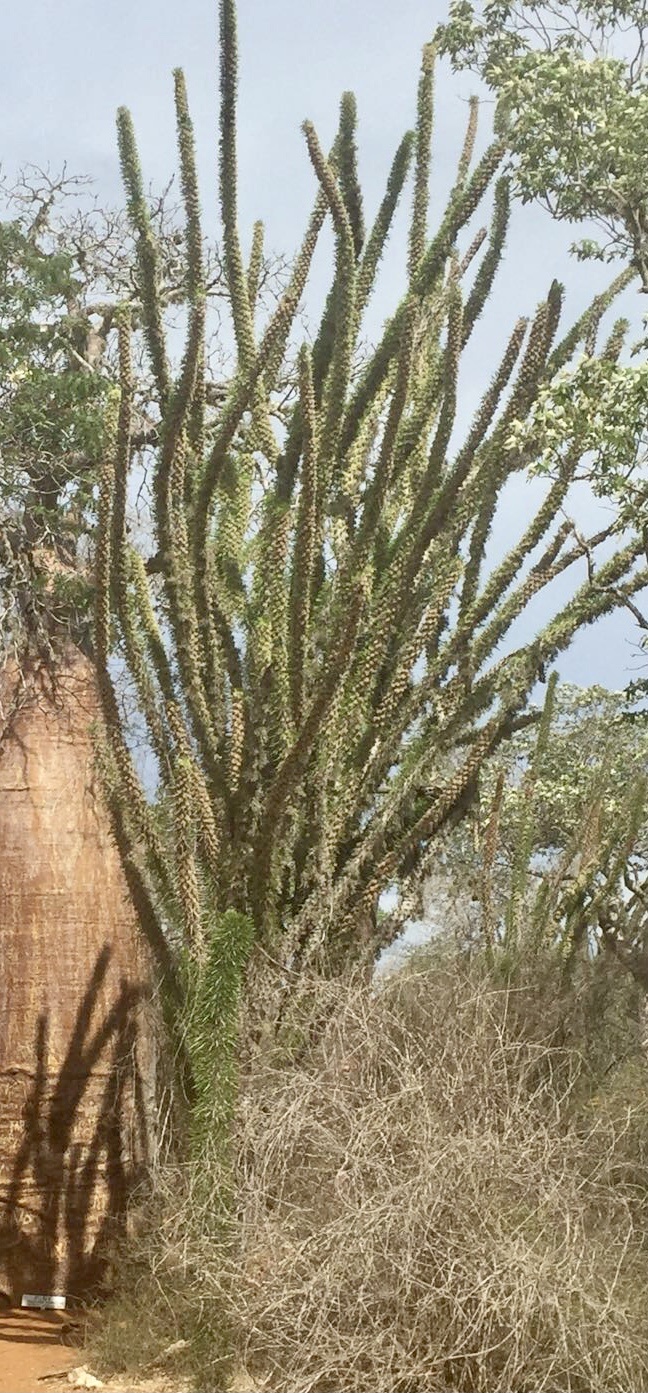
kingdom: Plantae
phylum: Tracheophyta
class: Magnoliopsida
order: Caryophyllales
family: Didiereaceae
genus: Alluaudia
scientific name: Alluaudia procera
